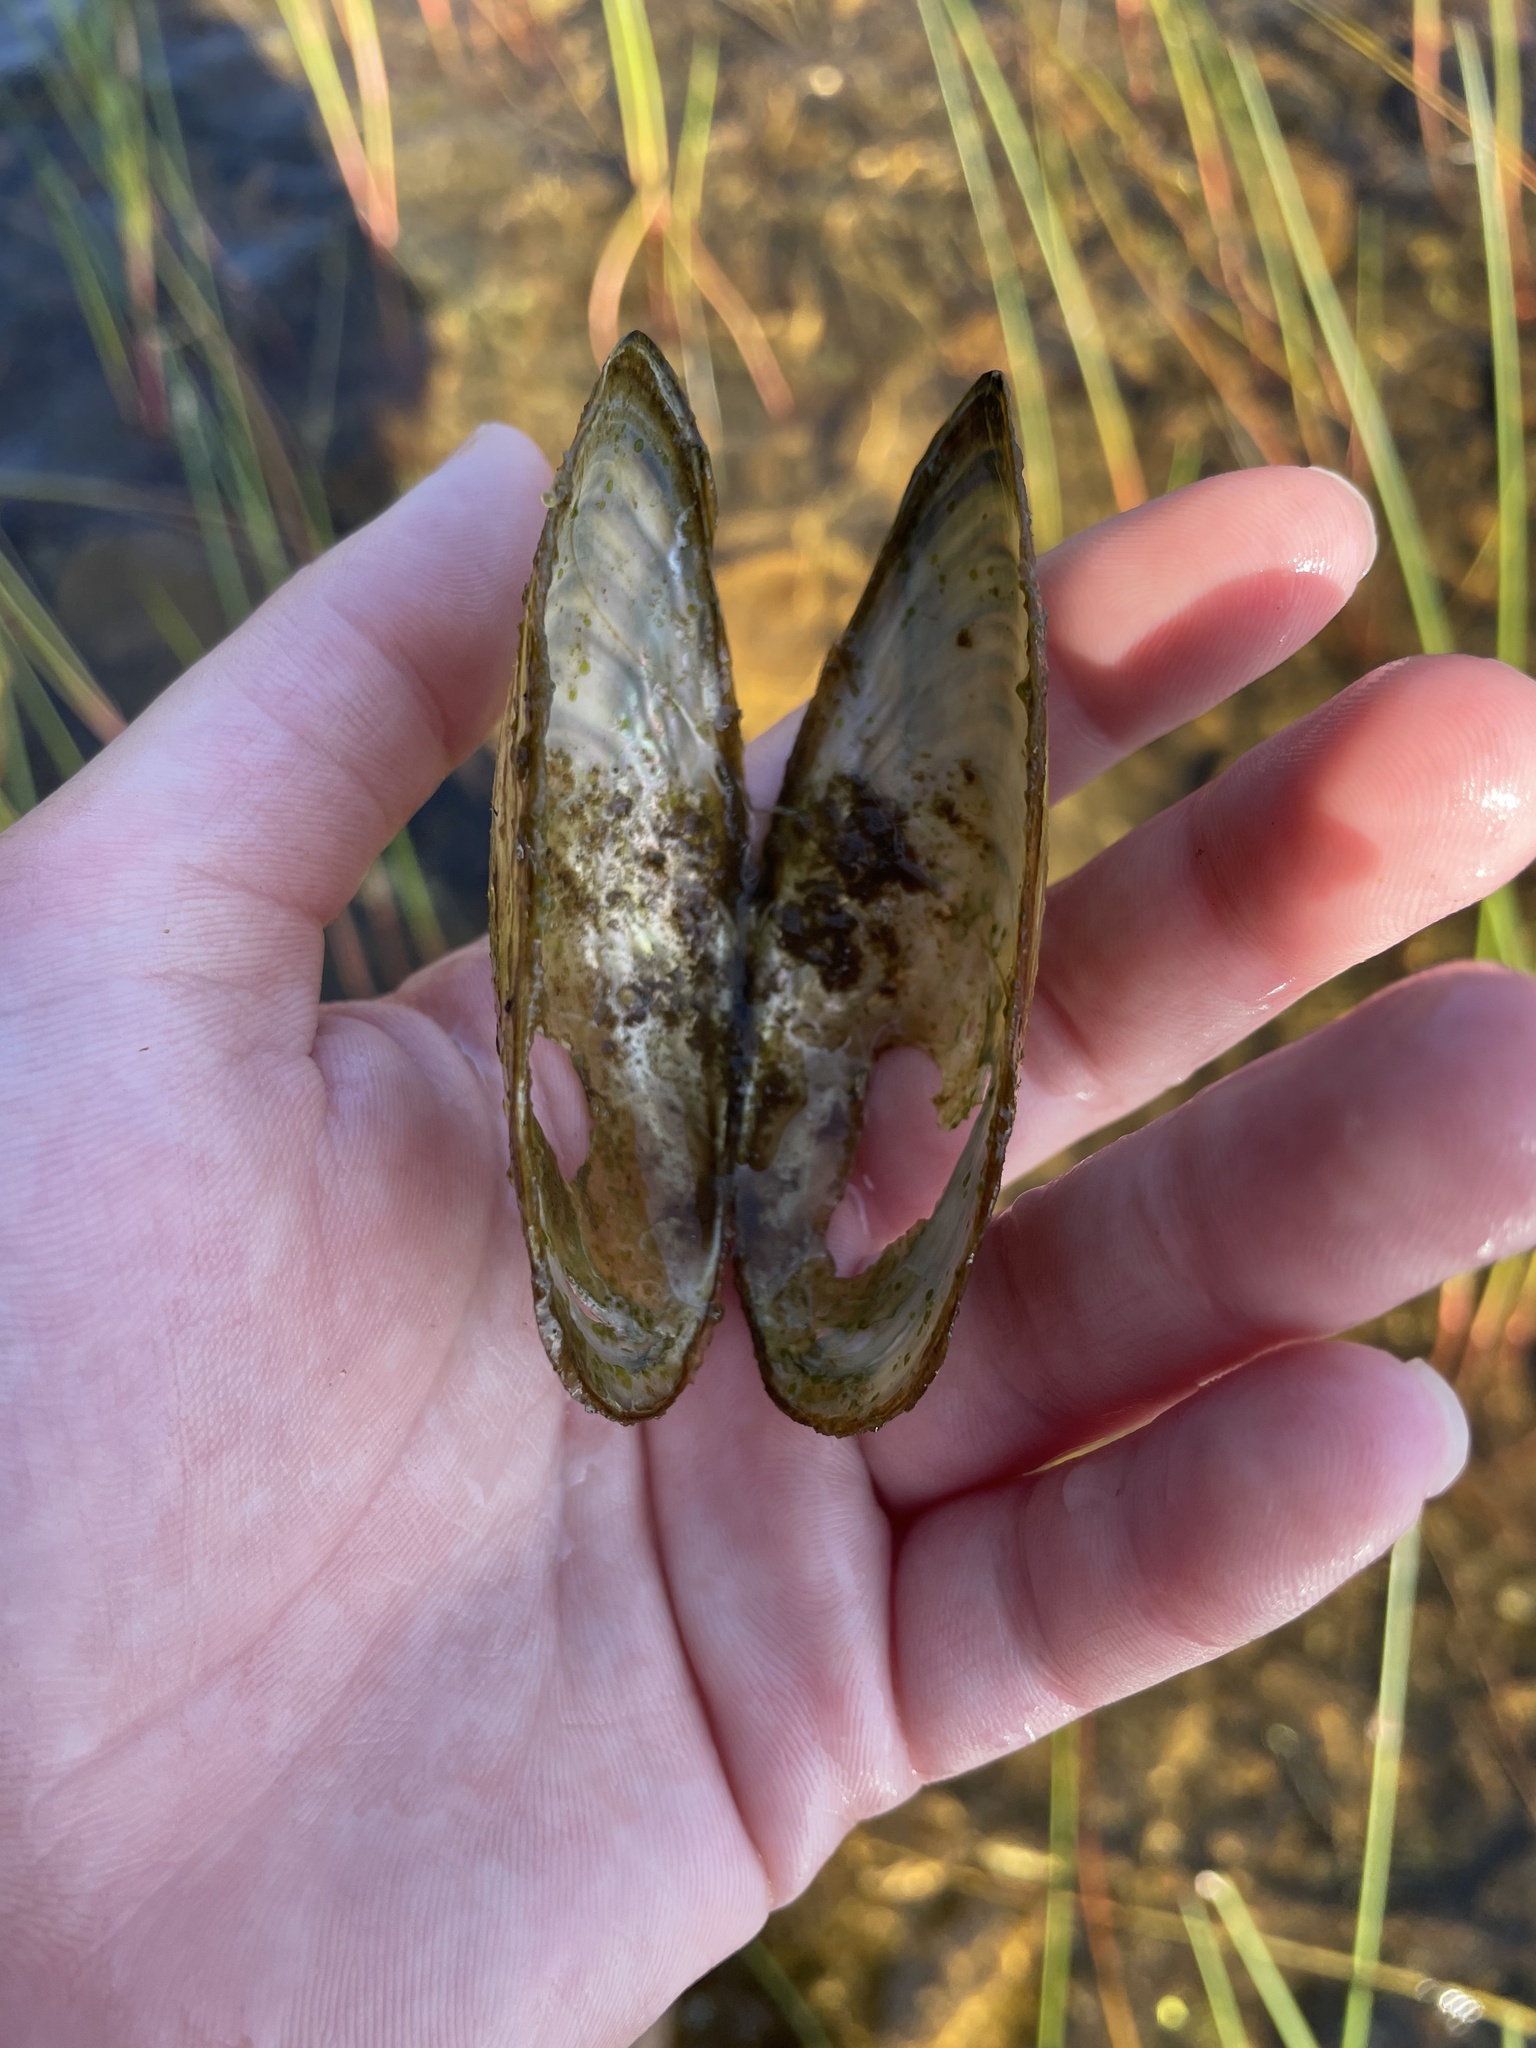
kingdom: Animalia
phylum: Mollusca
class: Bivalvia
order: Unionida
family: Unionidae
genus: Pyganodon
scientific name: Pyganodon cataracta
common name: Eastern floater
